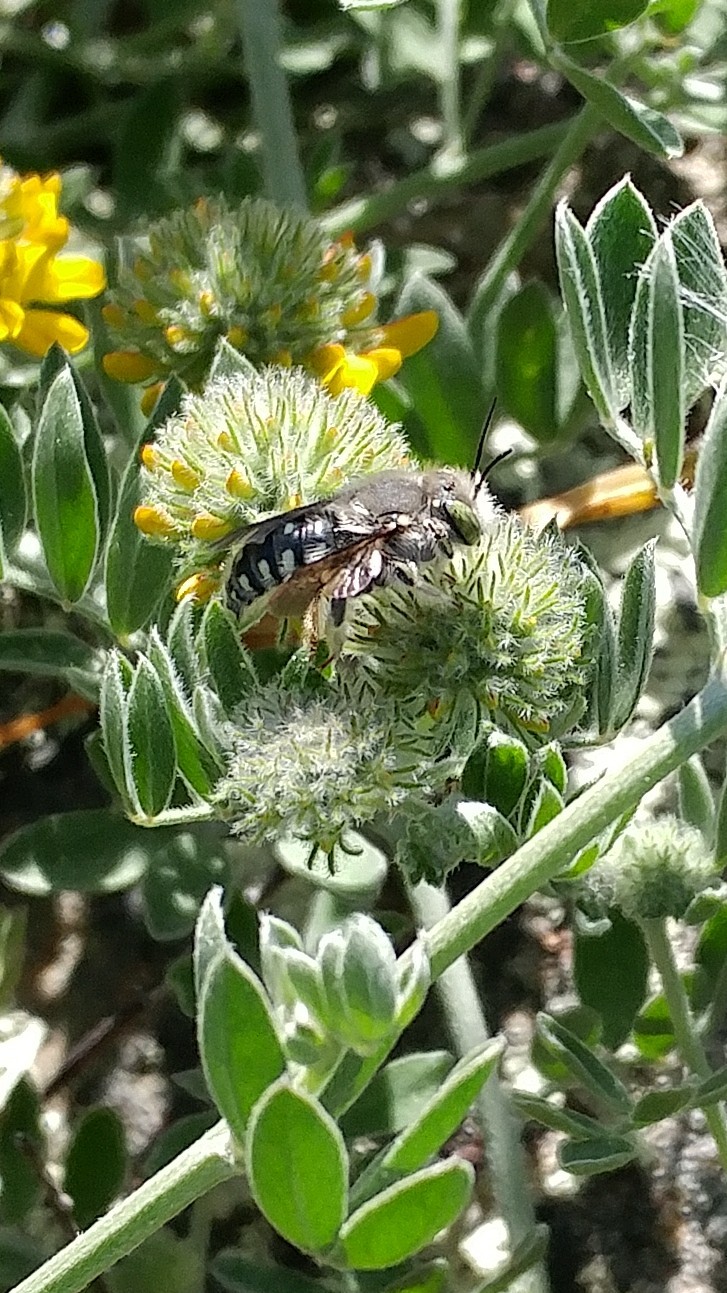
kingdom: Animalia
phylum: Arthropoda
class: Insecta
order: Hymenoptera
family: Megachilidae
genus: Anthidium
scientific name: Anthidium collectum
